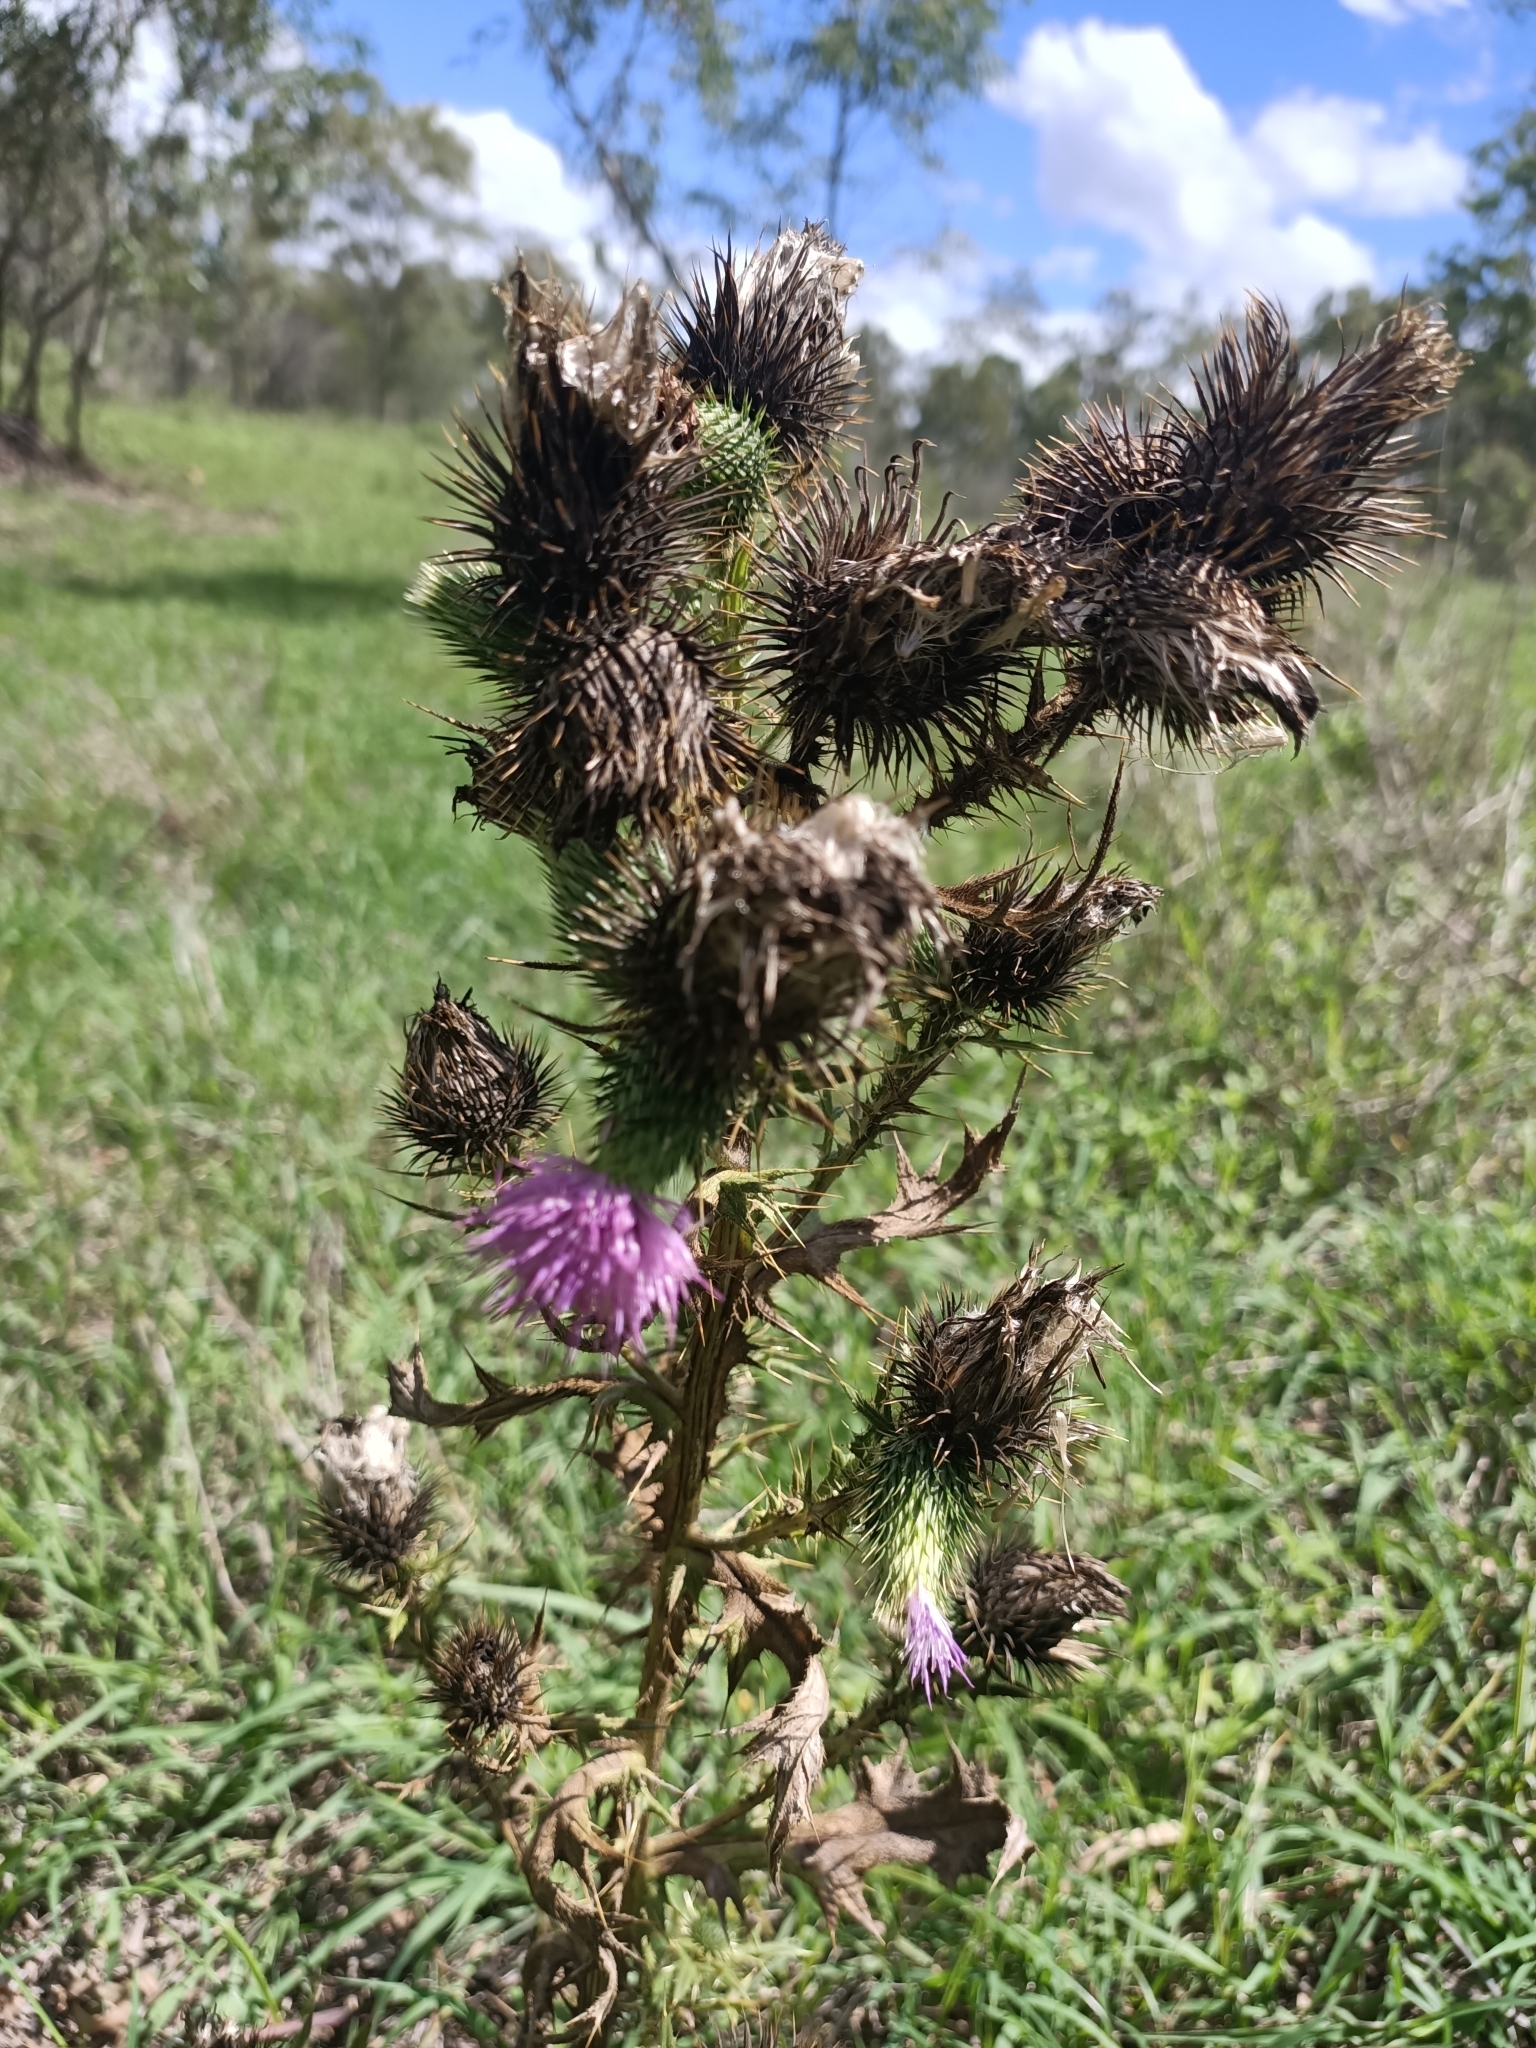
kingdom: Plantae
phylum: Tracheophyta
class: Magnoliopsida
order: Asterales
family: Asteraceae
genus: Cirsium
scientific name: Cirsium vulgare
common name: Bull thistle
